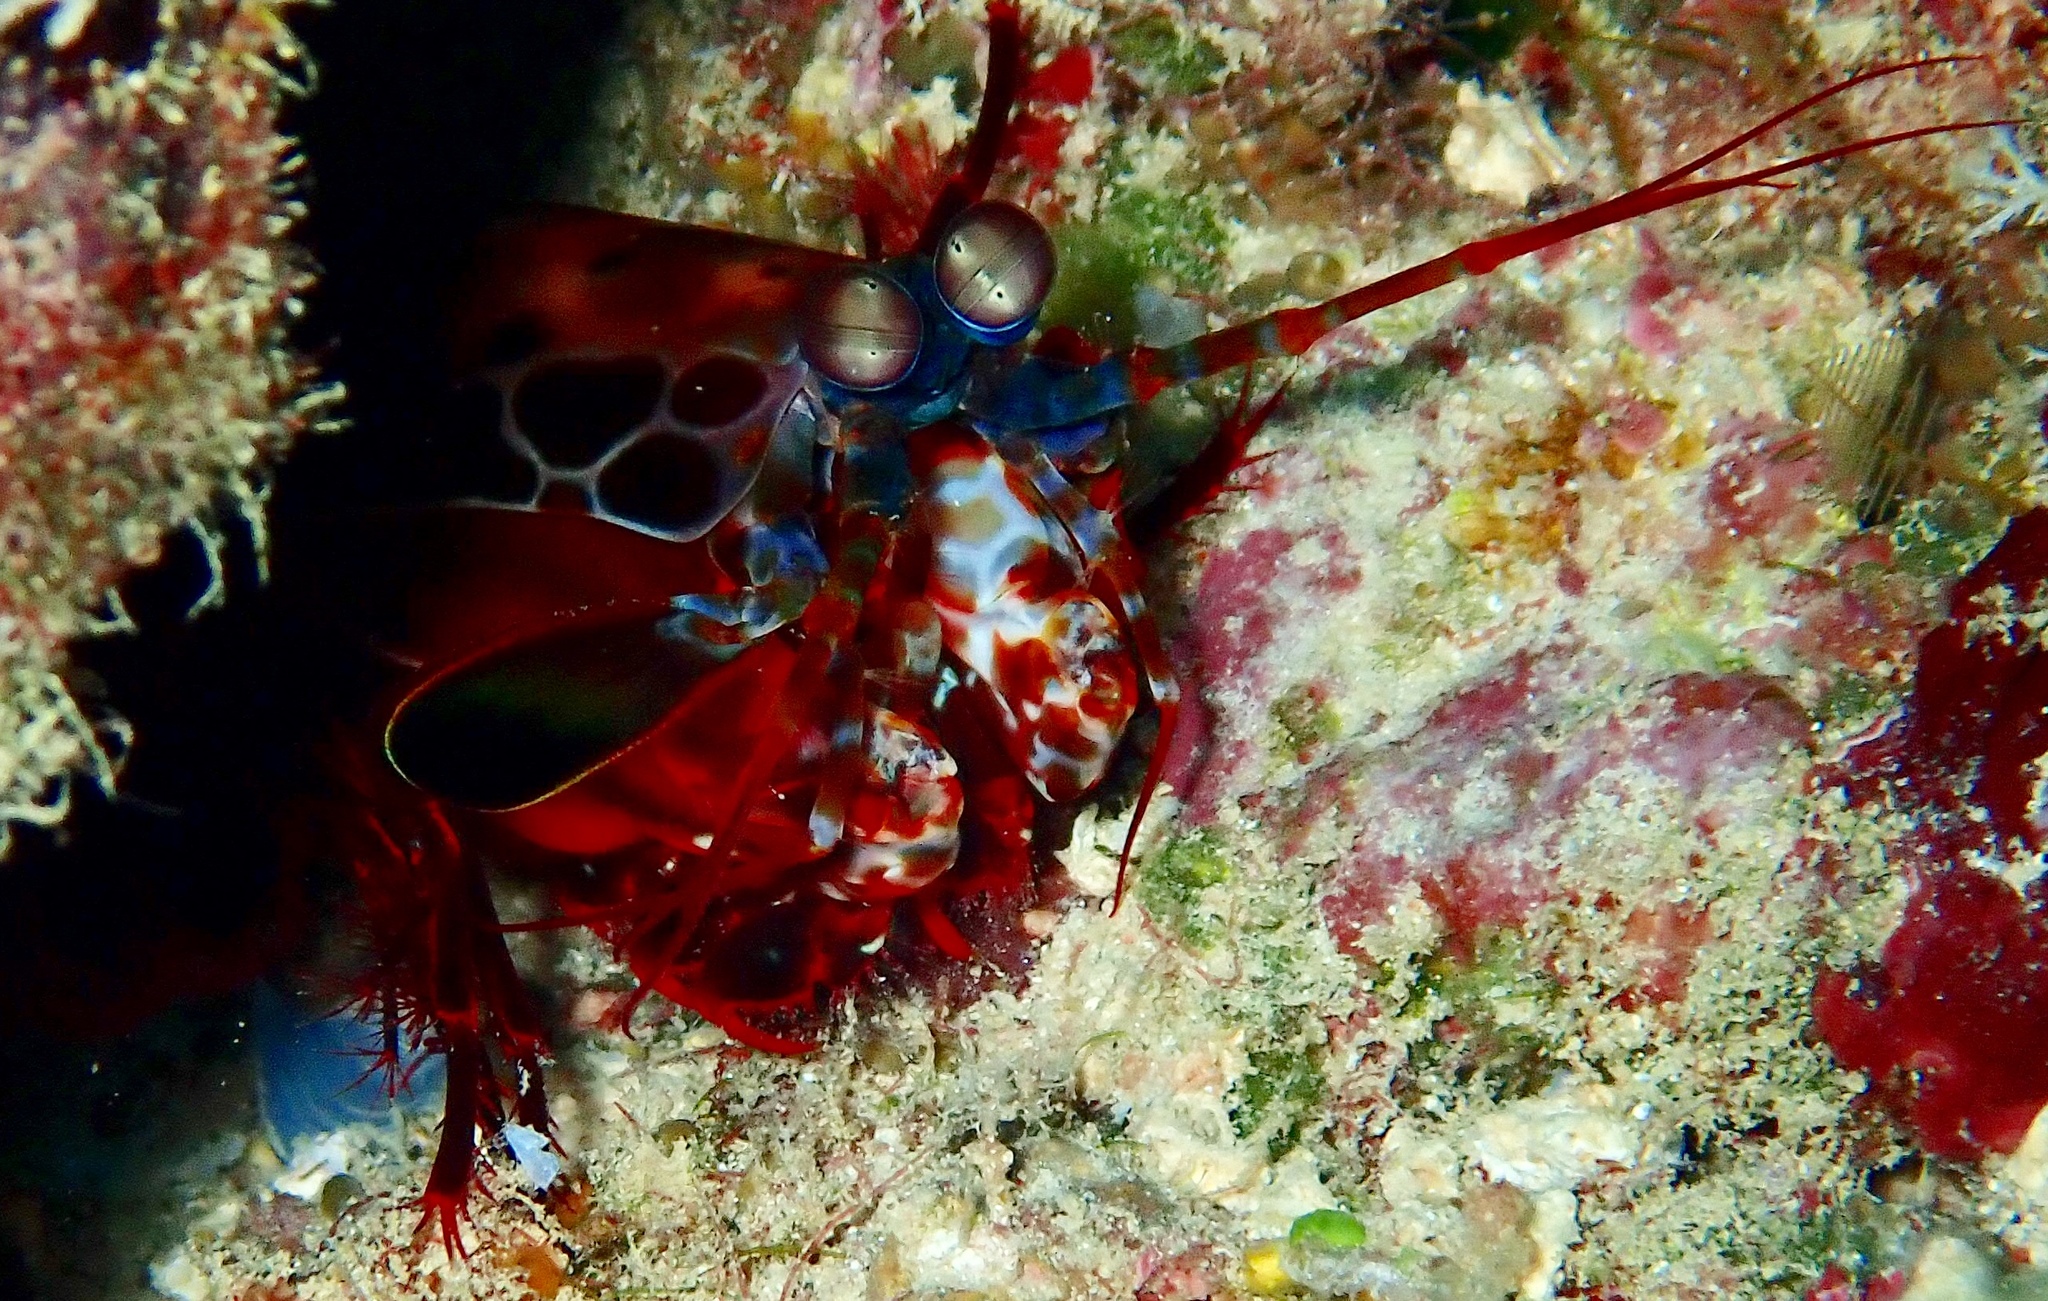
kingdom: Animalia
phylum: Arthropoda
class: Malacostraca
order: Stomatopoda
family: Odontodactylidae
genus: Odontodactylus
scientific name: Odontodactylus scyllarus
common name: Peacock mantis shrimp
